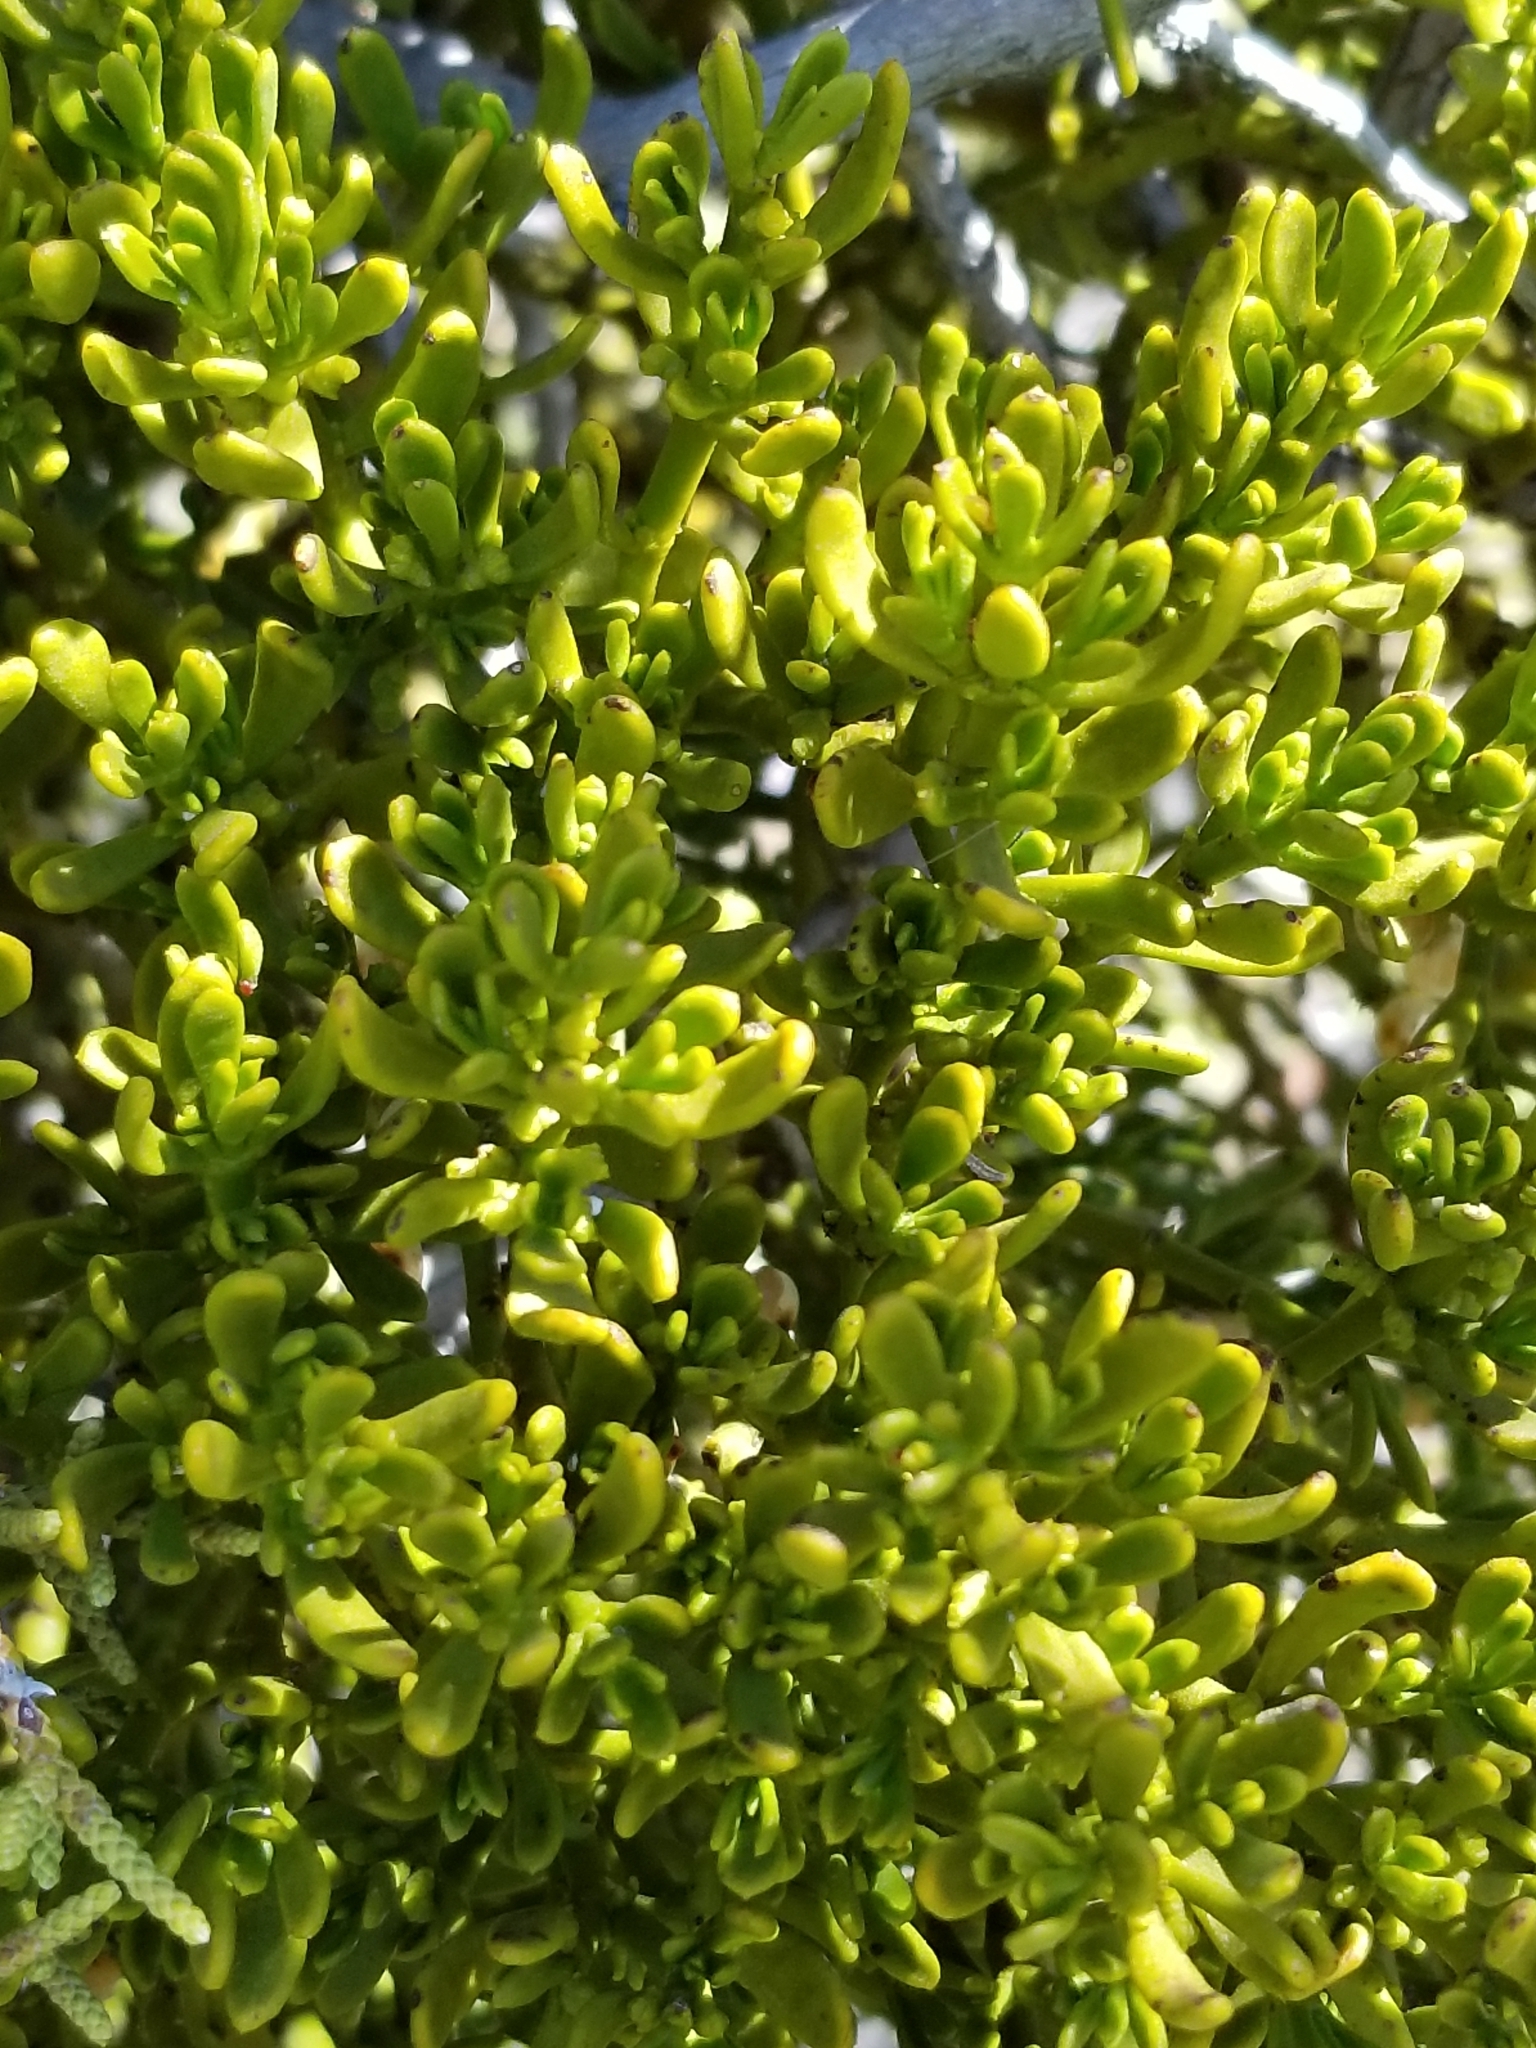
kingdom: Plantae
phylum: Tracheophyta
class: Magnoliopsida
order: Santalales
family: Viscaceae
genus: Phoradendron
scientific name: Phoradendron bolleanum
